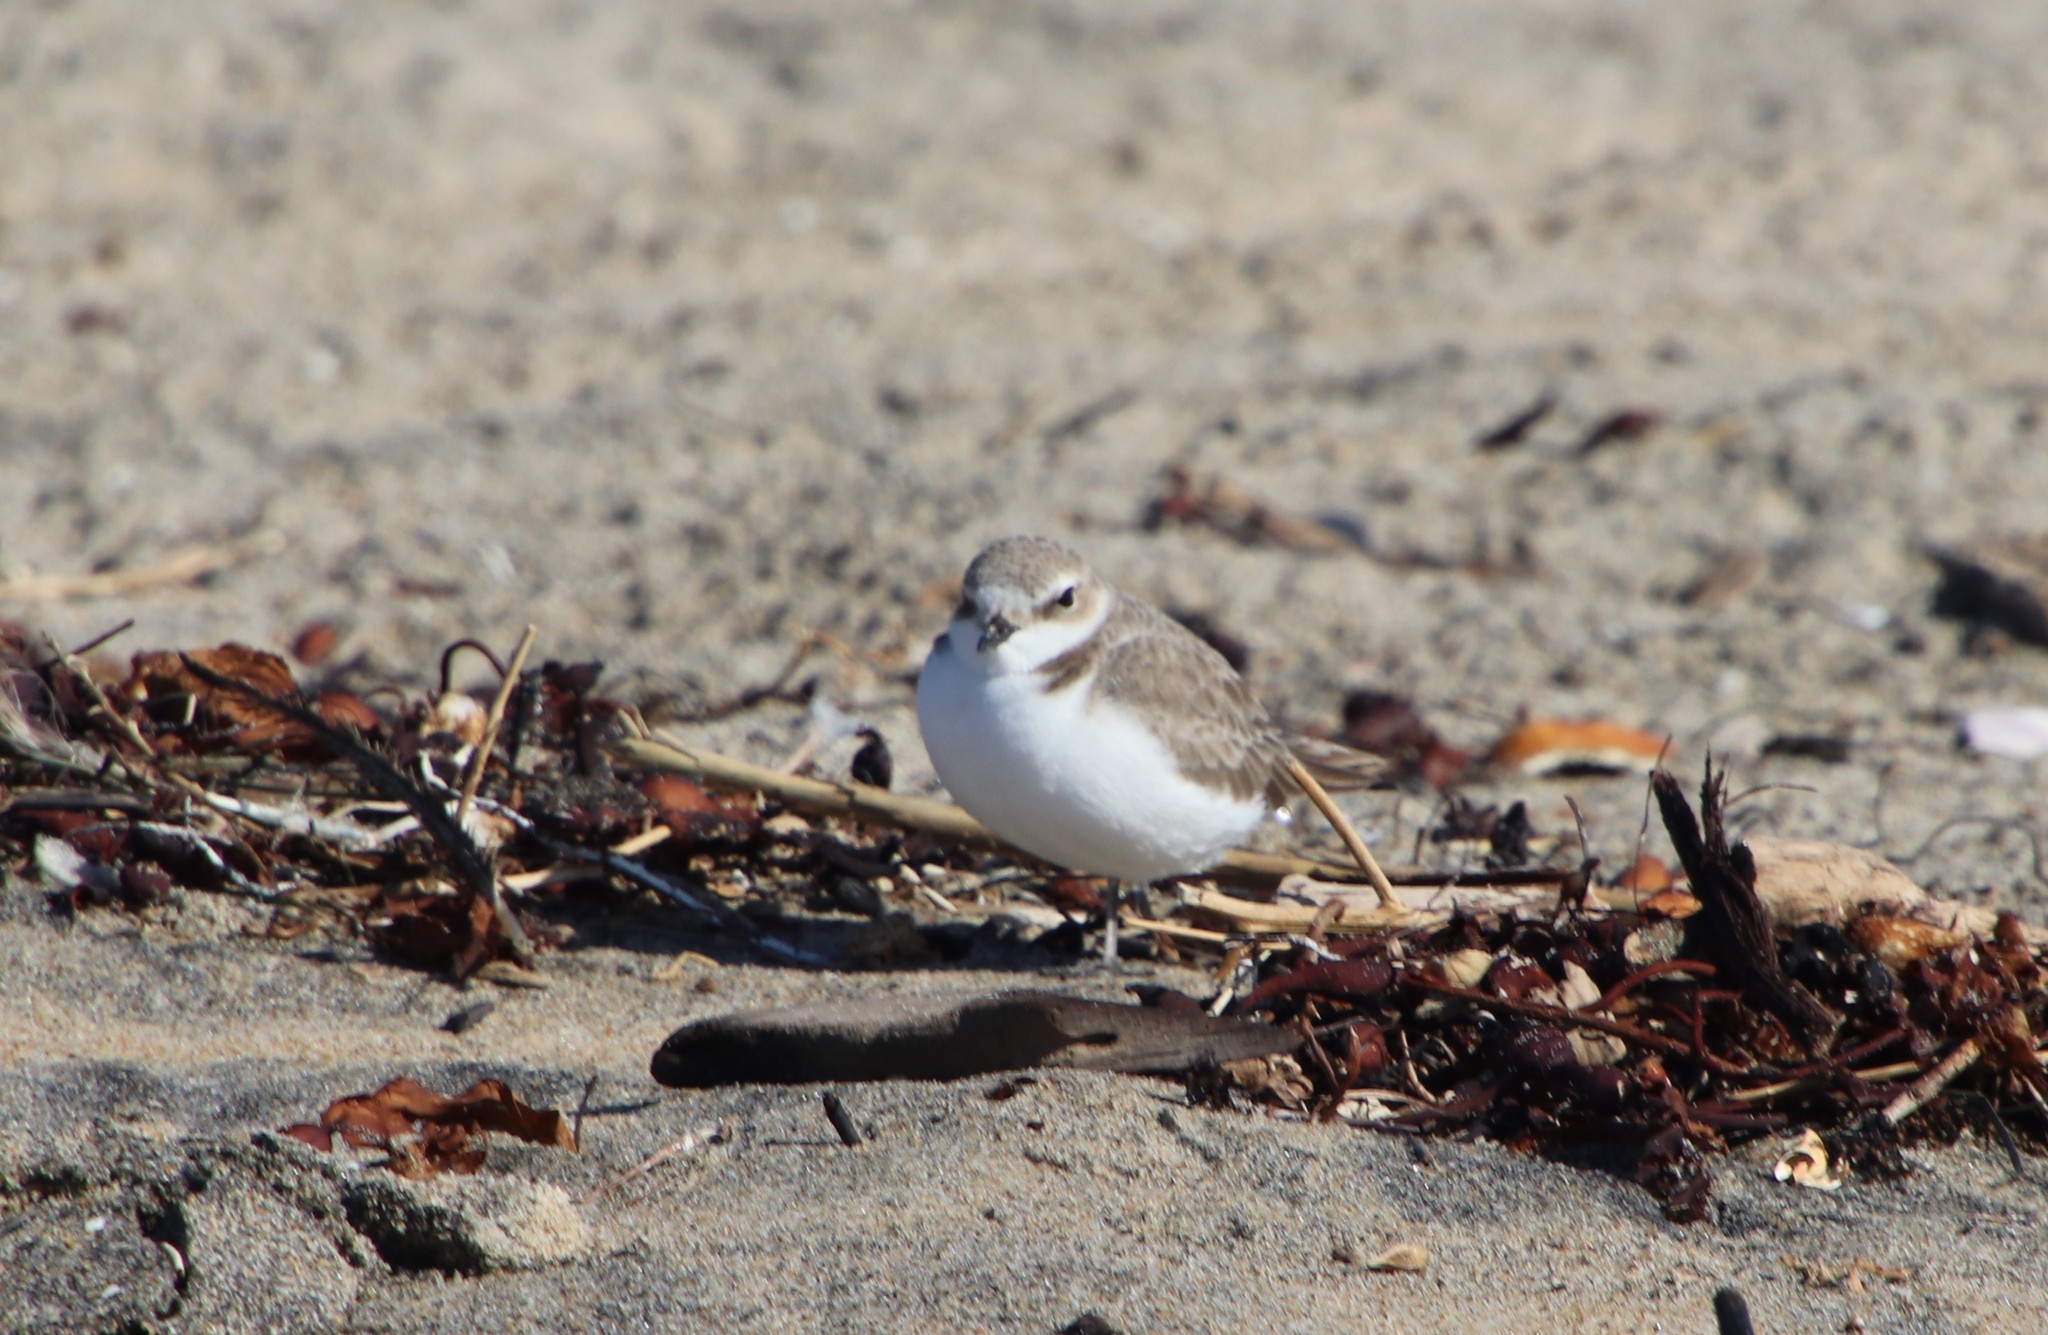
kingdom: Animalia
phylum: Chordata
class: Aves
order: Charadriiformes
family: Charadriidae
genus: Anarhynchus
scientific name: Anarhynchus
